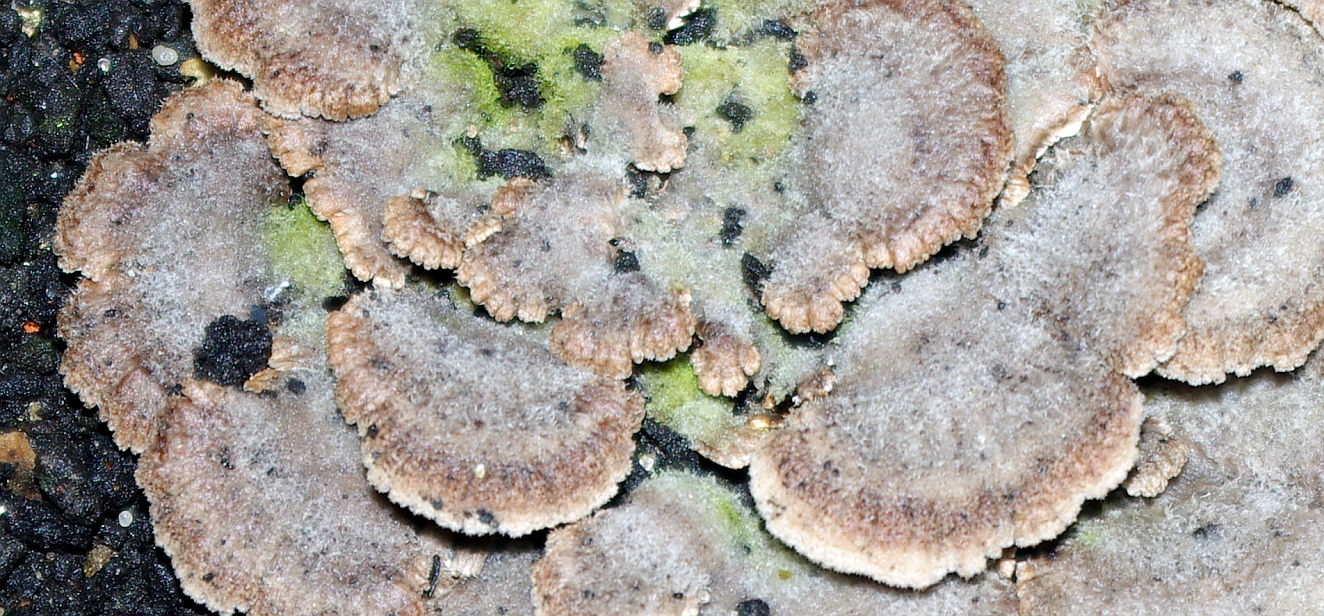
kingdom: Fungi
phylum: Basidiomycota
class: Agaricomycetes
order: Agaricales
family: Schizophyllaceae
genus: Schizophyllum
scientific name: Schizophyllum commune
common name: Common porecrust
